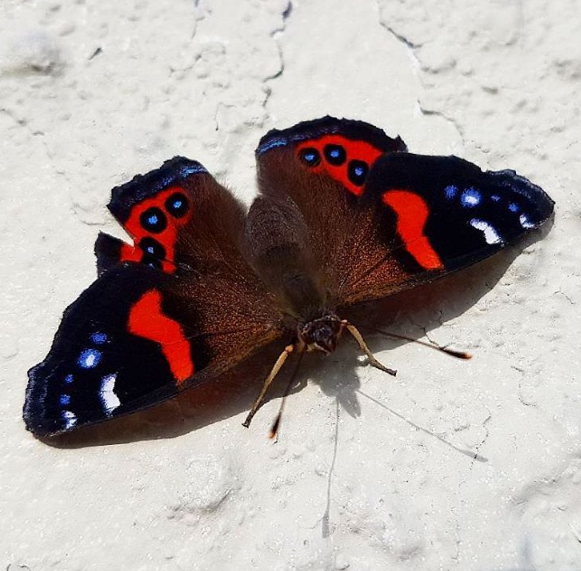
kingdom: Animalia
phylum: Arthropoda
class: Insecta
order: Lepidoptera
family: Nymphalidae
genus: Vanessa
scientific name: Vanessa gonerilla
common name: New zealand red admiral
